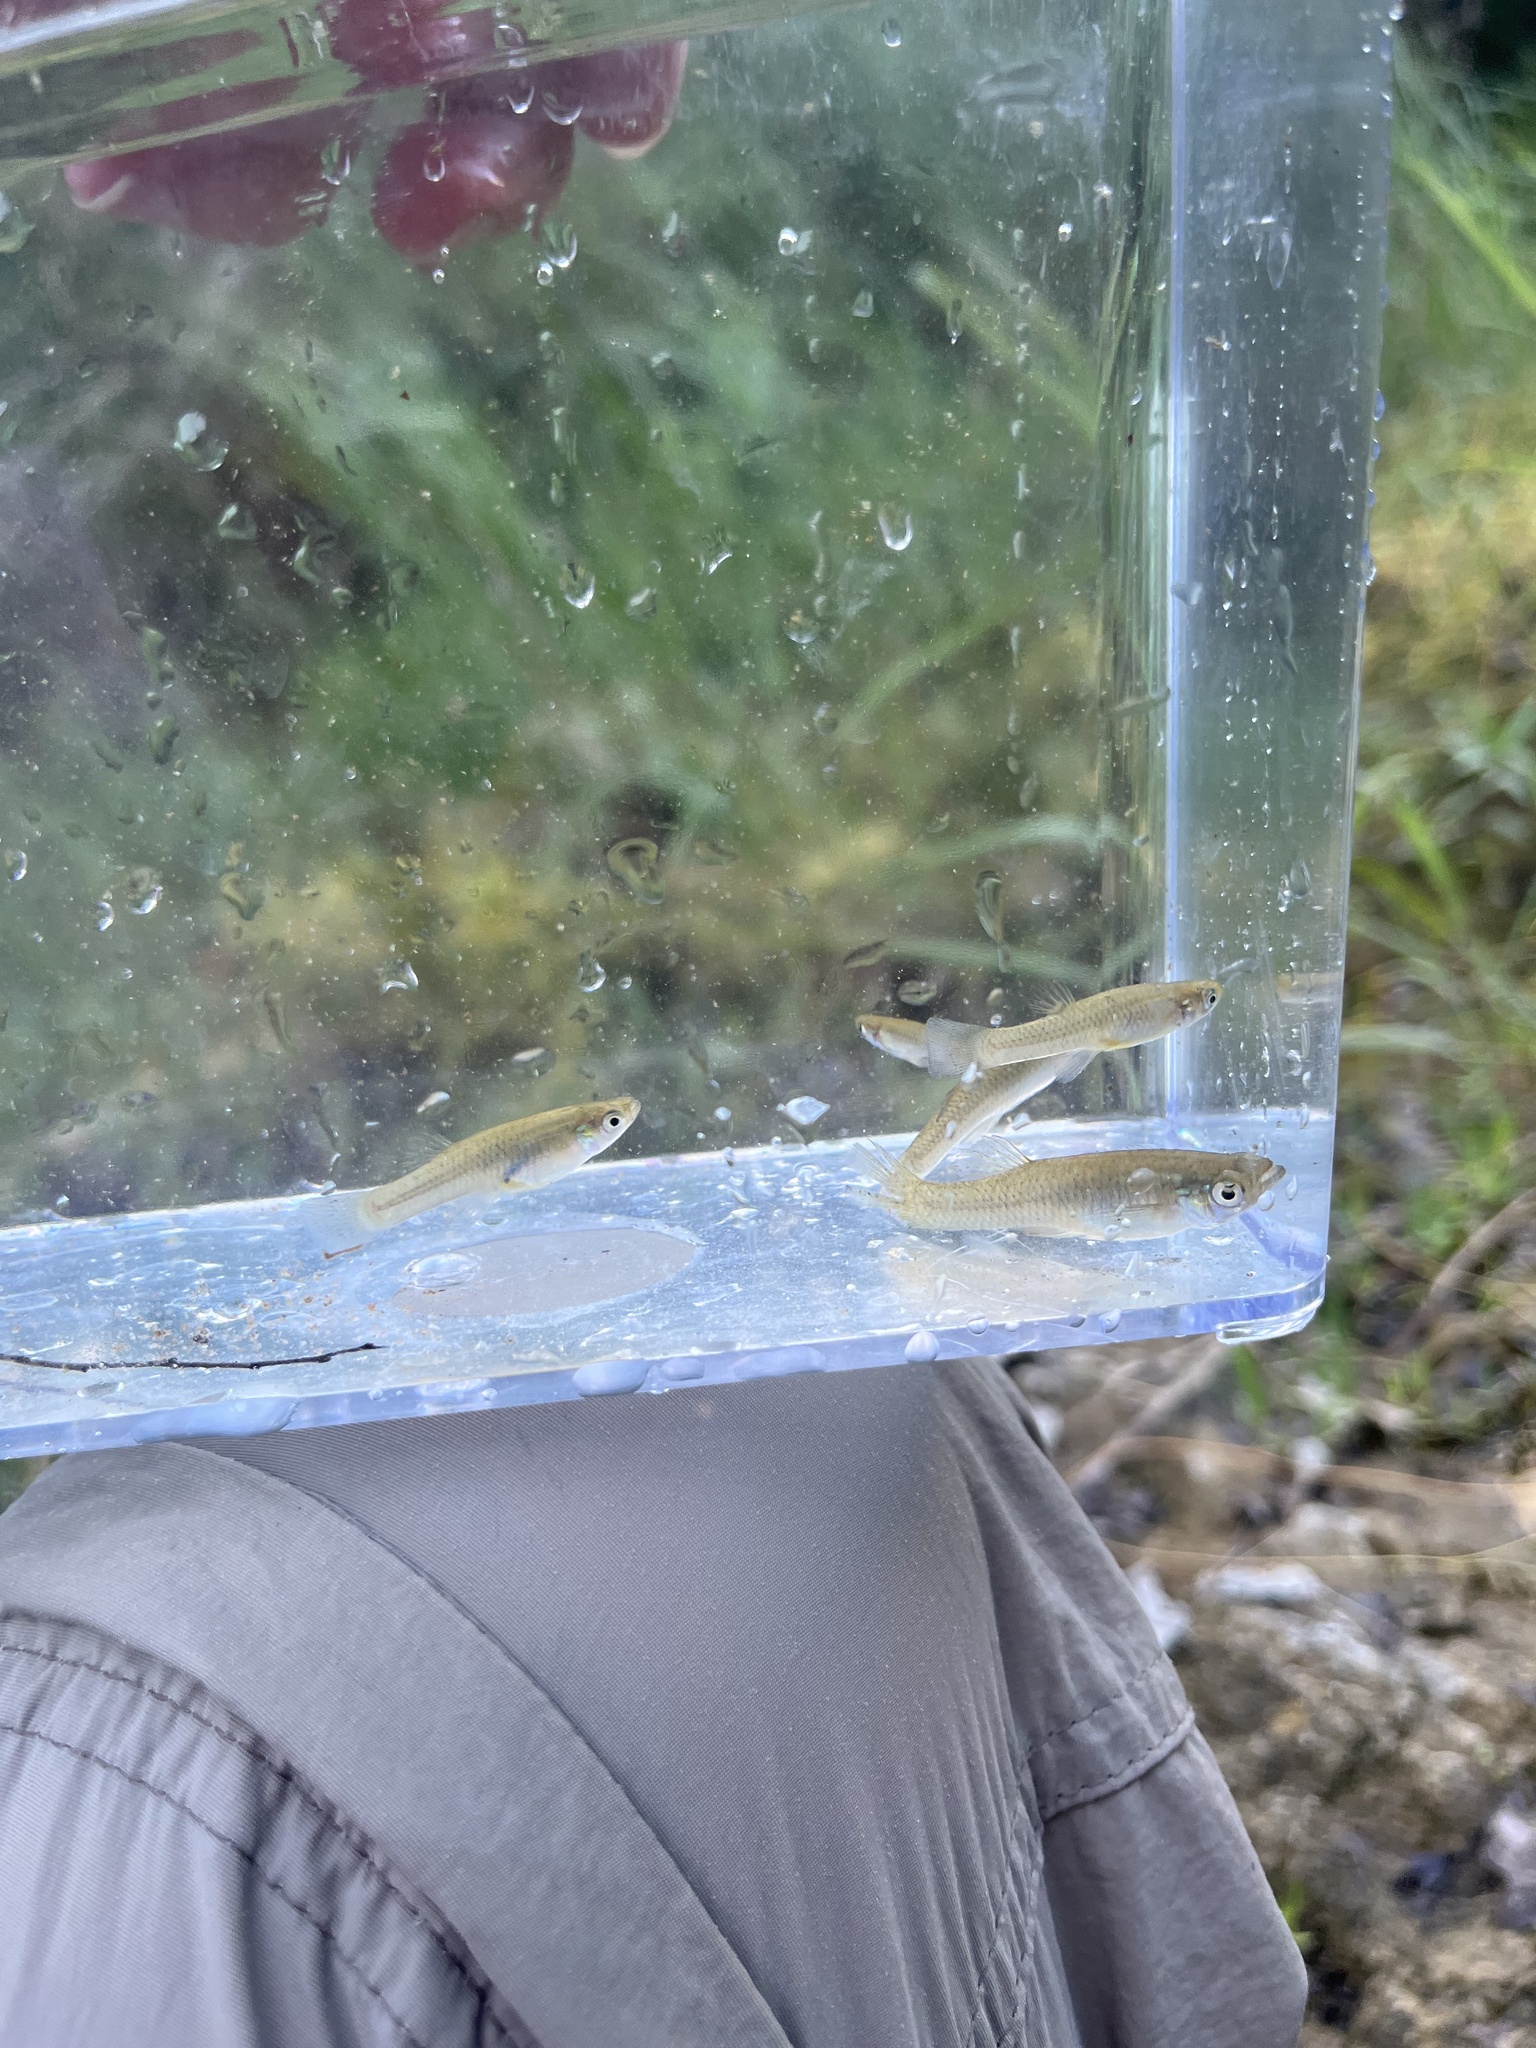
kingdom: Animalia
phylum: Chordata
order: Cyprinodontiformes
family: Poeciliidae
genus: Gambusia
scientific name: Gambusia affinis
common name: Mosquitofish
